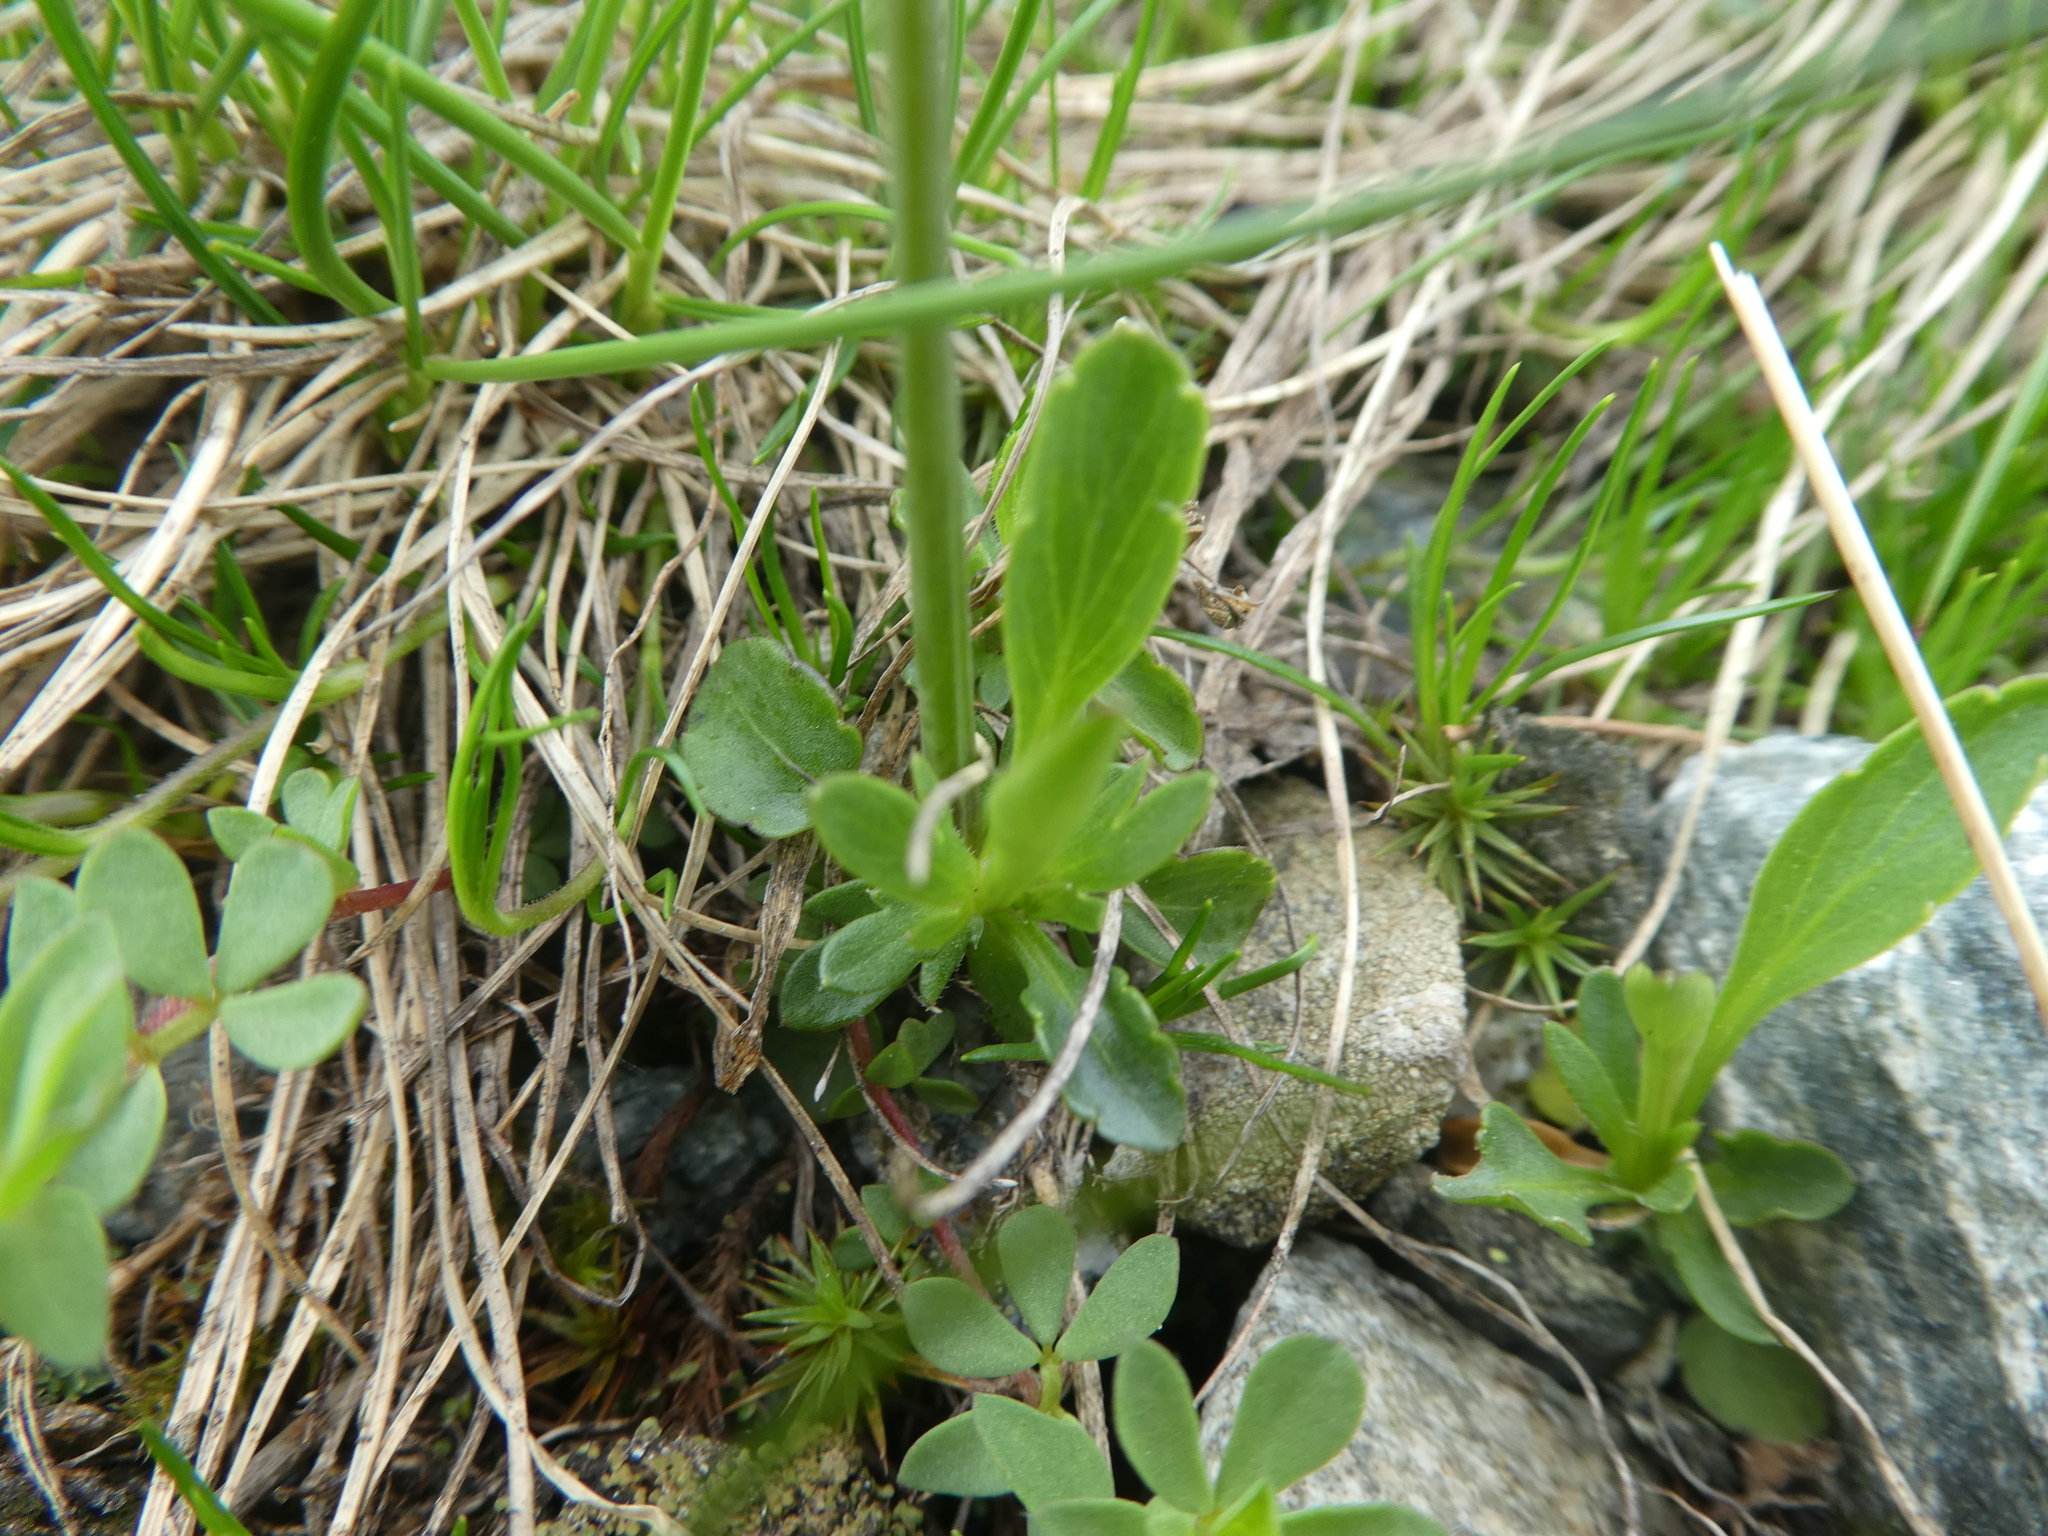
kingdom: Plantae
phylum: Tracheophyta
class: Magnoliopsida
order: Malpighiales
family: Violaceae
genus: Viola
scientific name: Viola calcarata
